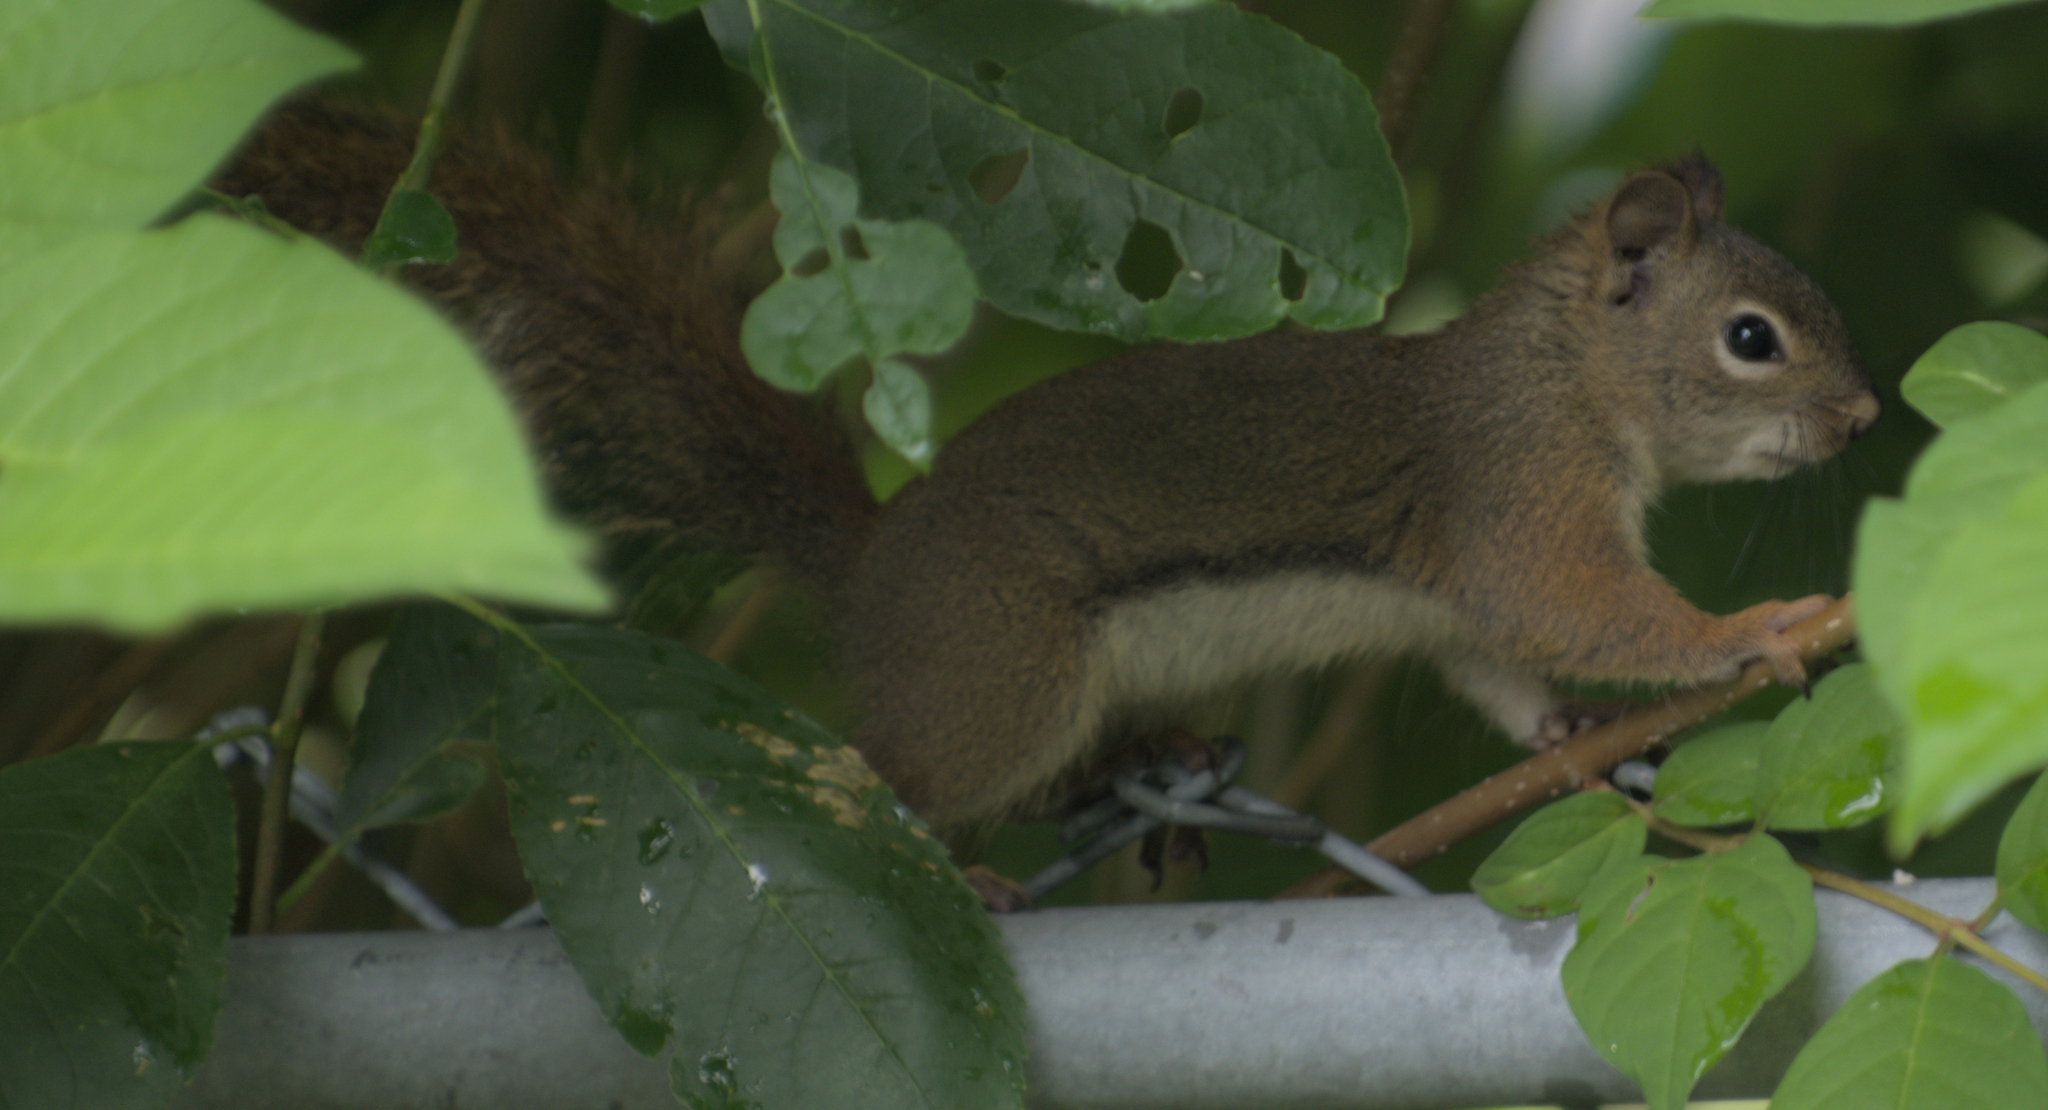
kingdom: Animalia
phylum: Chordata
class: Mammalia
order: Rodentia
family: Sciuridae
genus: Tamiasciurus
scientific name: Tamiasciurus hudsonicus
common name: Red squirrel
